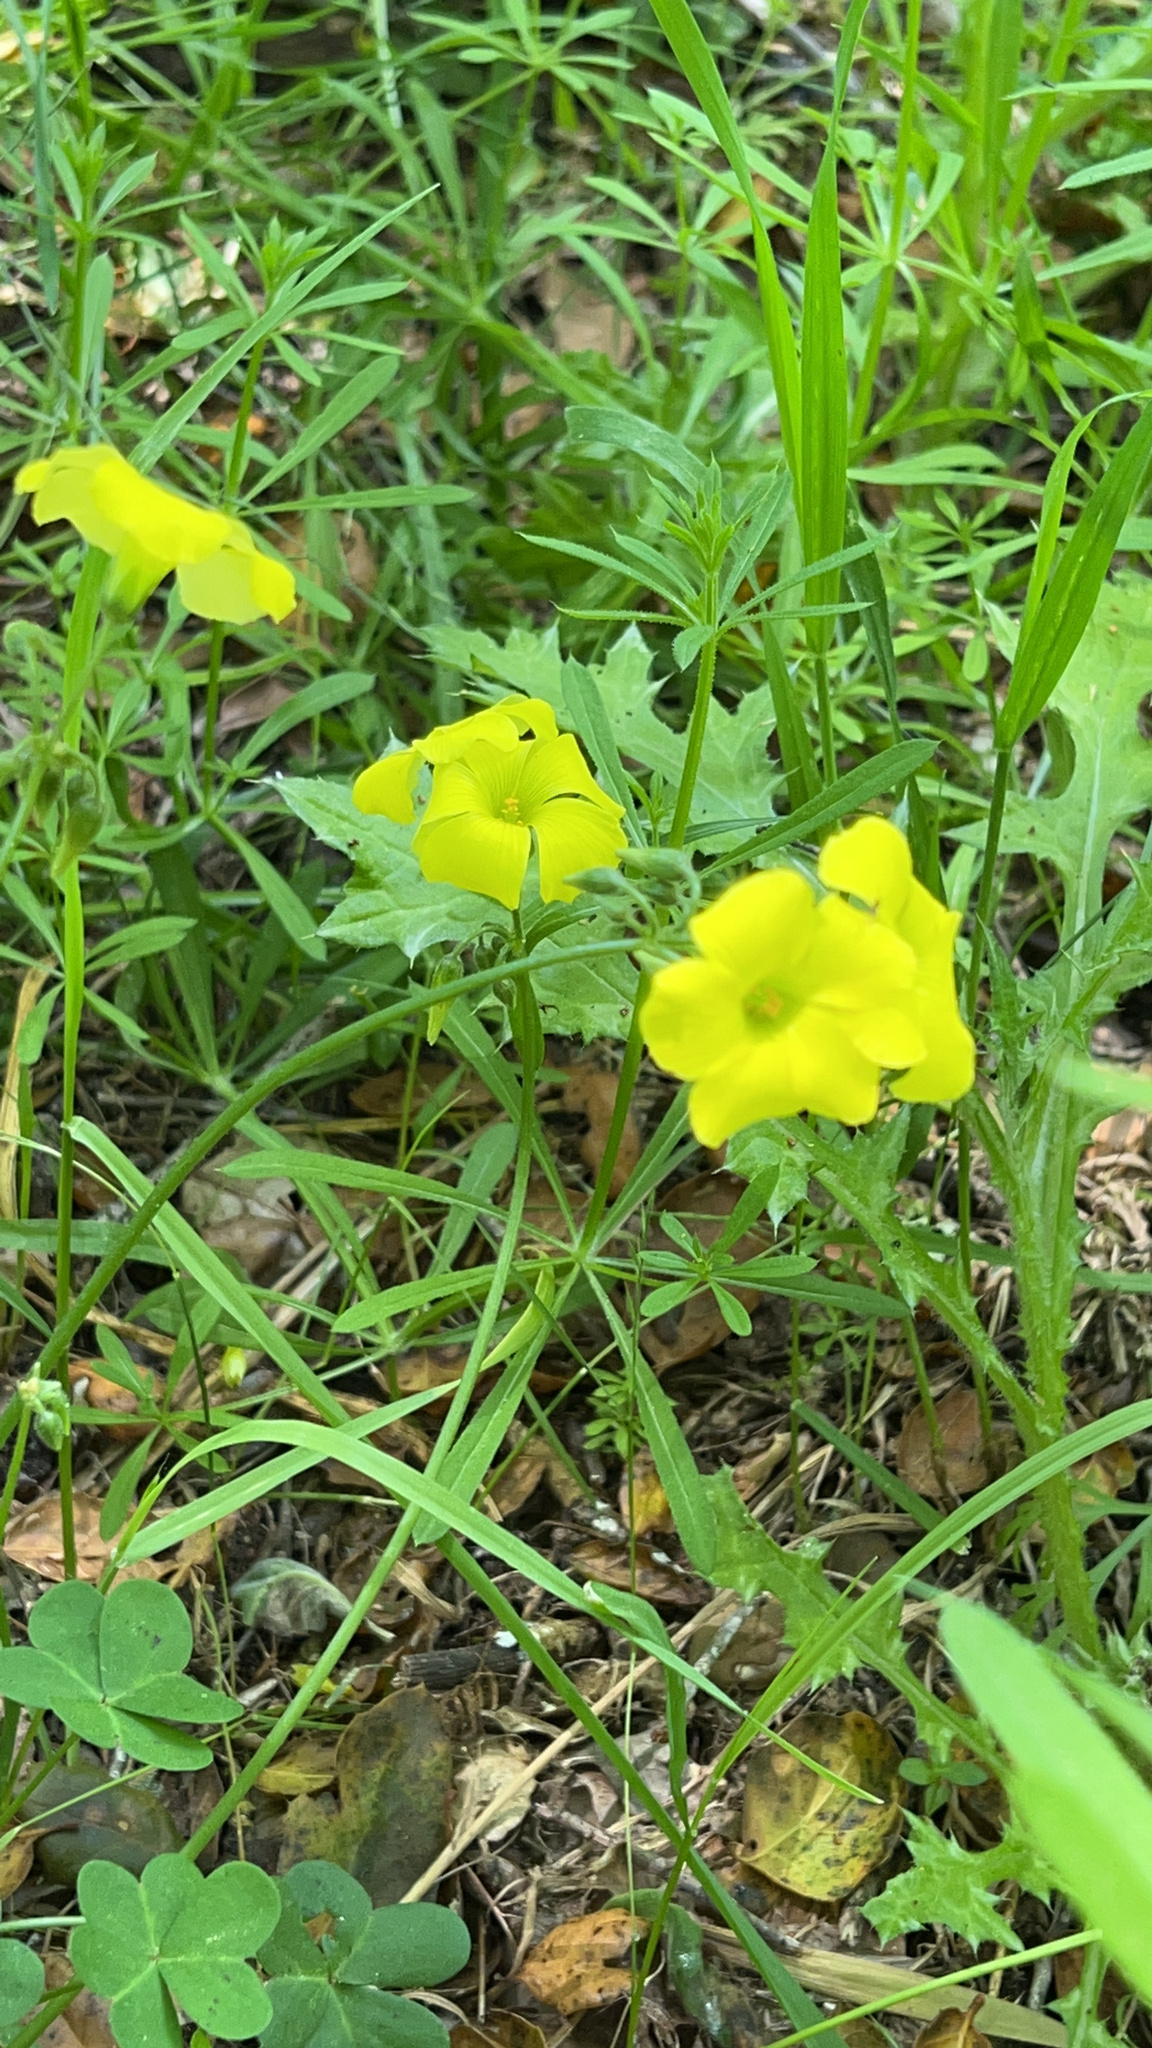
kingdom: Plantae
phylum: Tracheophyta
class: Magnoliopsida
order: Oxalidales
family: Oxalidaceae
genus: Oxalis
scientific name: Oxalis pes-caprae
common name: Bermuda-buttercup
